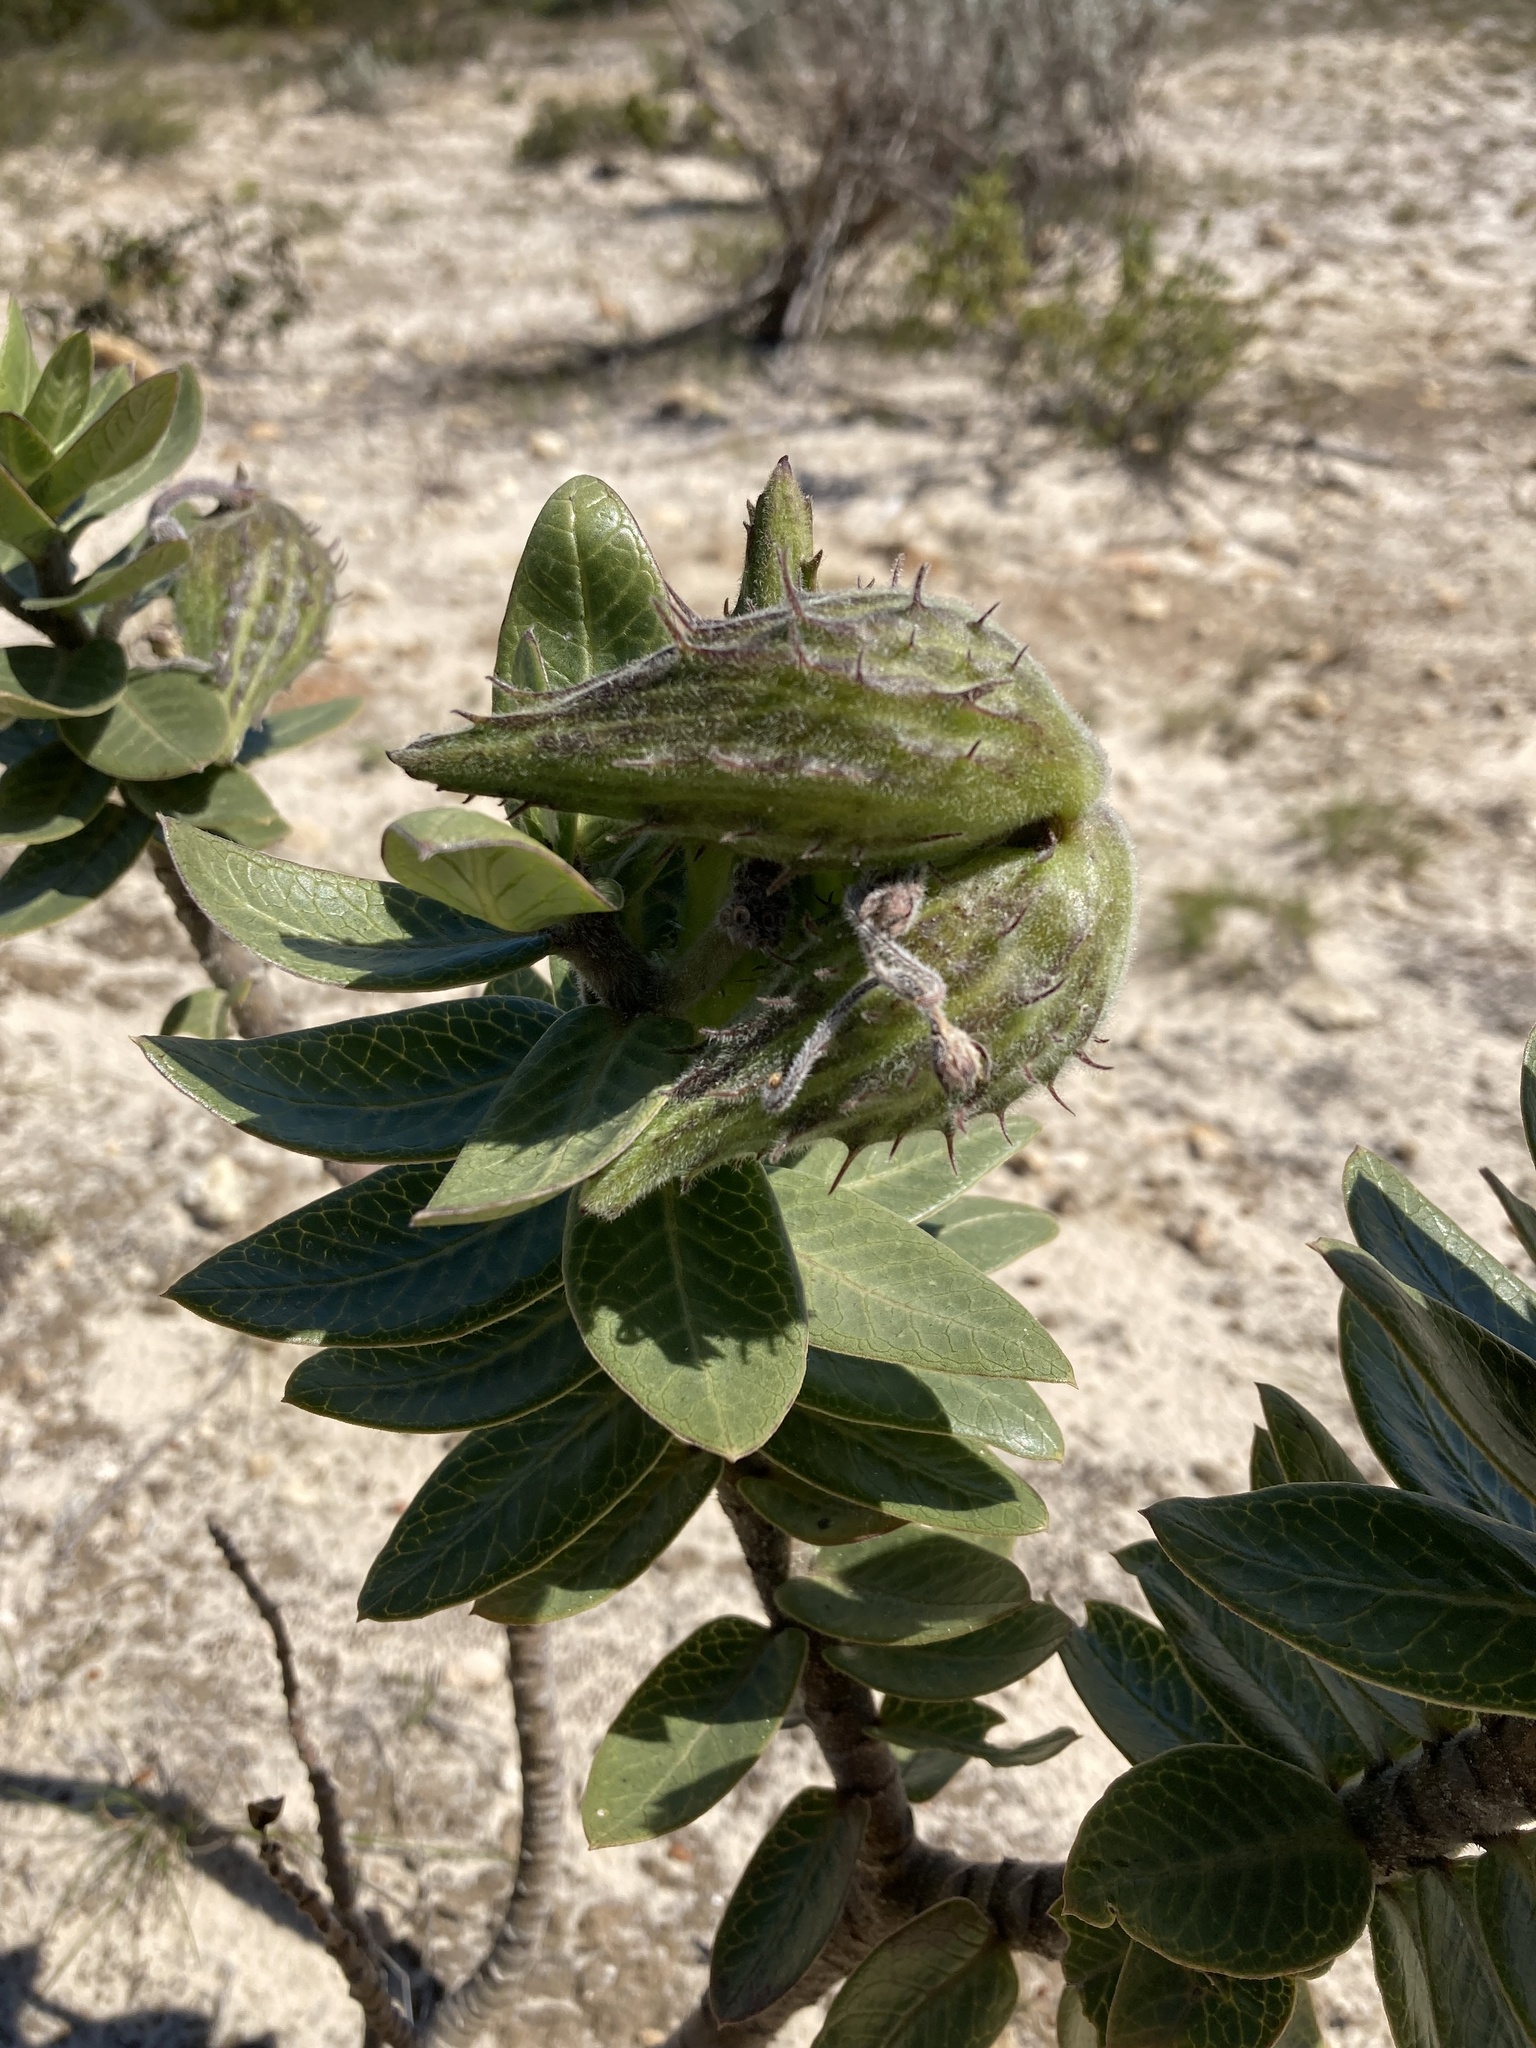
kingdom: Plantae
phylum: Tracheophyta
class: Magnoliopsida
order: Gentianales
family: Apocynaceae
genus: Gomphocarpus
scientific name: Gomphocarpus cancellatus
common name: Wild cotton
